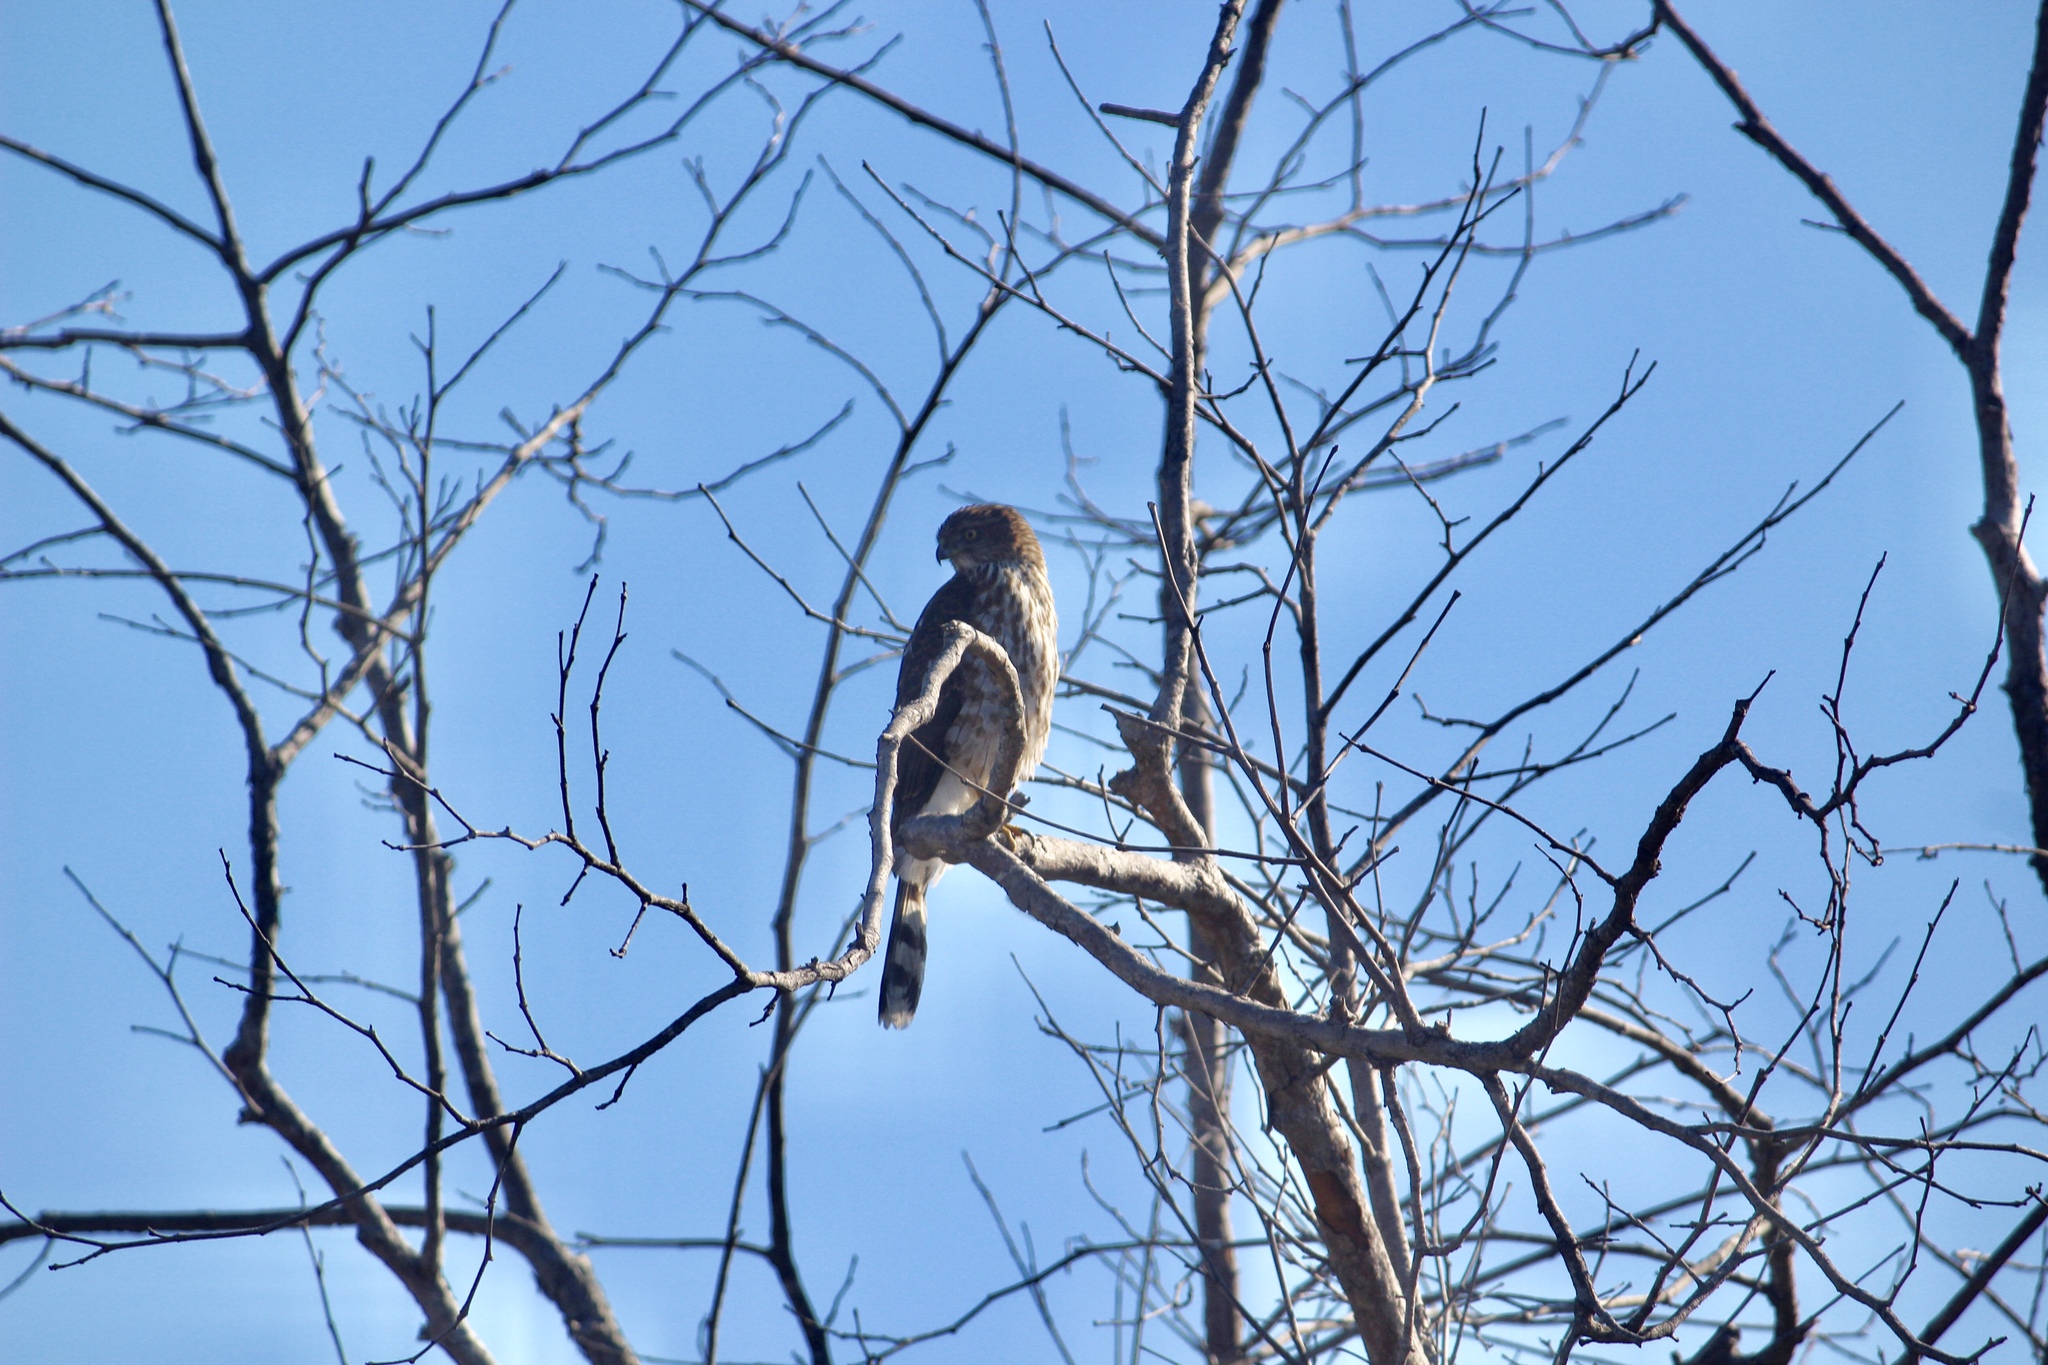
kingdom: Animalia
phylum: Chordata
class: Aves
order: Accipitriformes
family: Accipitridae
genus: Accipiter
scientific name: Accipiter cooperii
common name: Cooper's hawk
